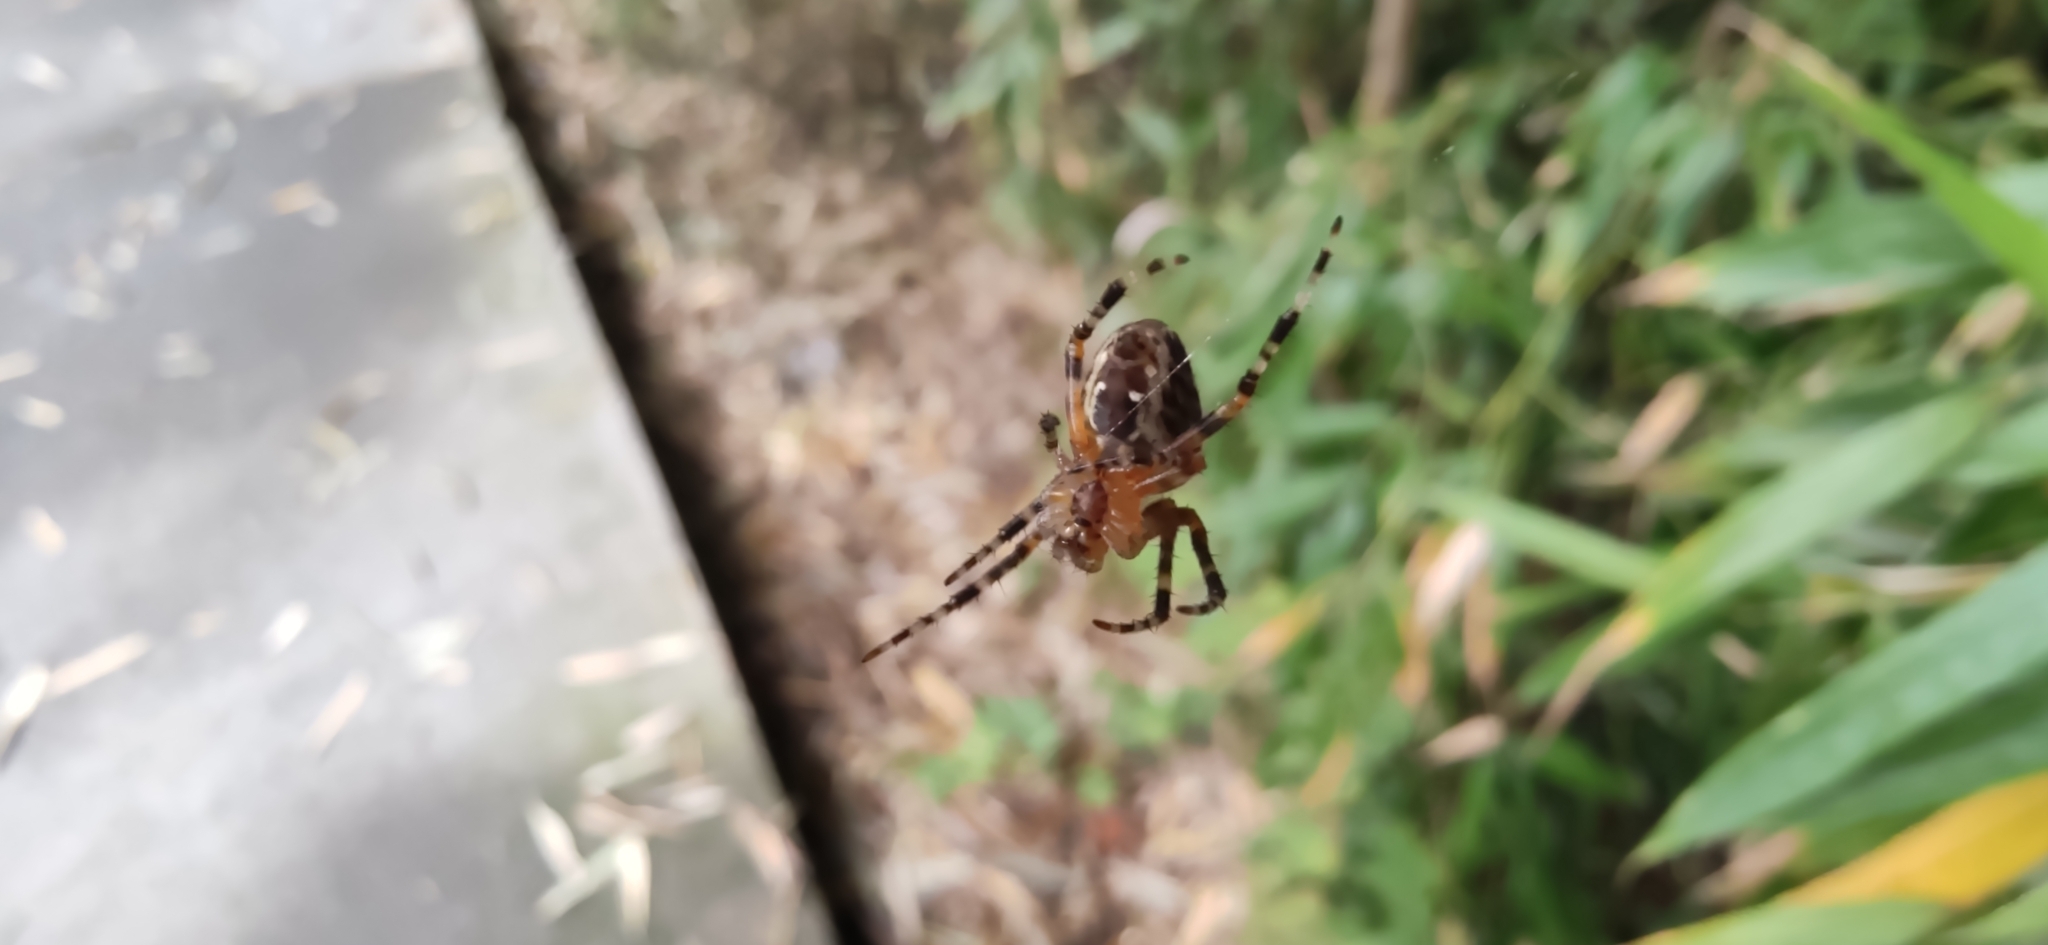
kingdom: Animalia
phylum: Arthropoda
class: Arachnida
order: Araneae
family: Araneidae
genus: Araneus
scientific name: Araneus diadematus
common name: Cross orbweaver
